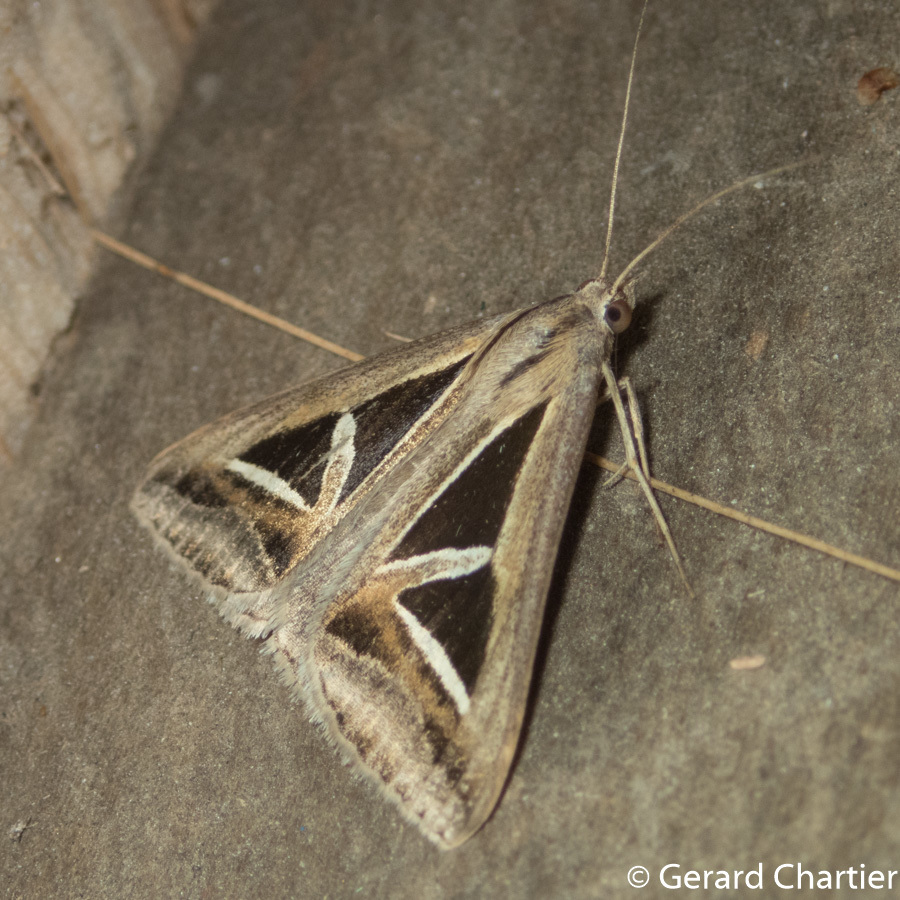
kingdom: Animalia
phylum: Arthropoda
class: Insecta
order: Lepidoptera
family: Erebidae
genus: Trigonodes
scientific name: Trigonodes hyppasia
